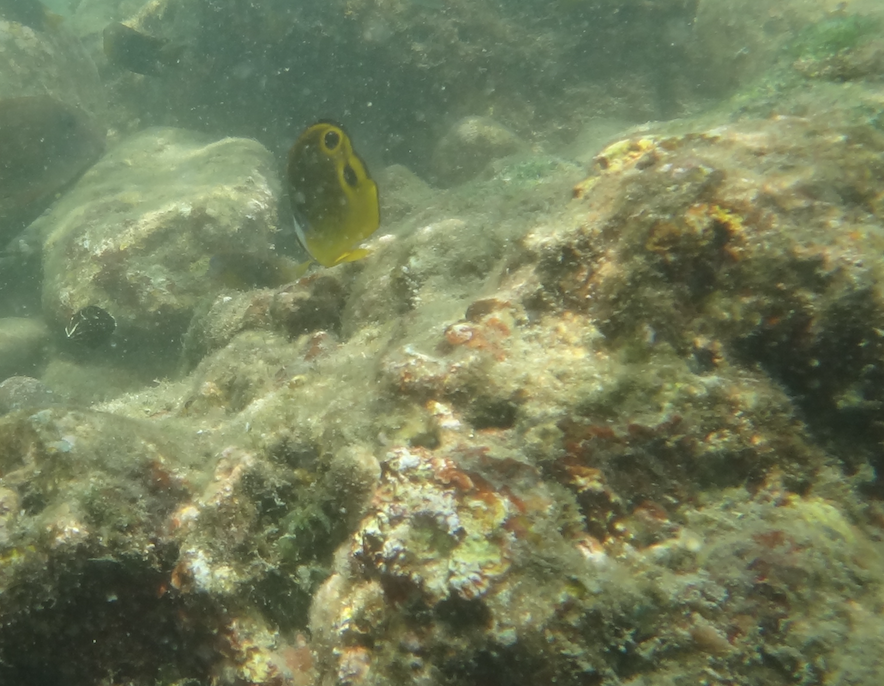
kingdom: Animalia
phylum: Chordata
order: Perciformes
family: Chaetodontidae
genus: Chaetodon
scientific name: Chaetodon lunula
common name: Raccoon butterflyfish
